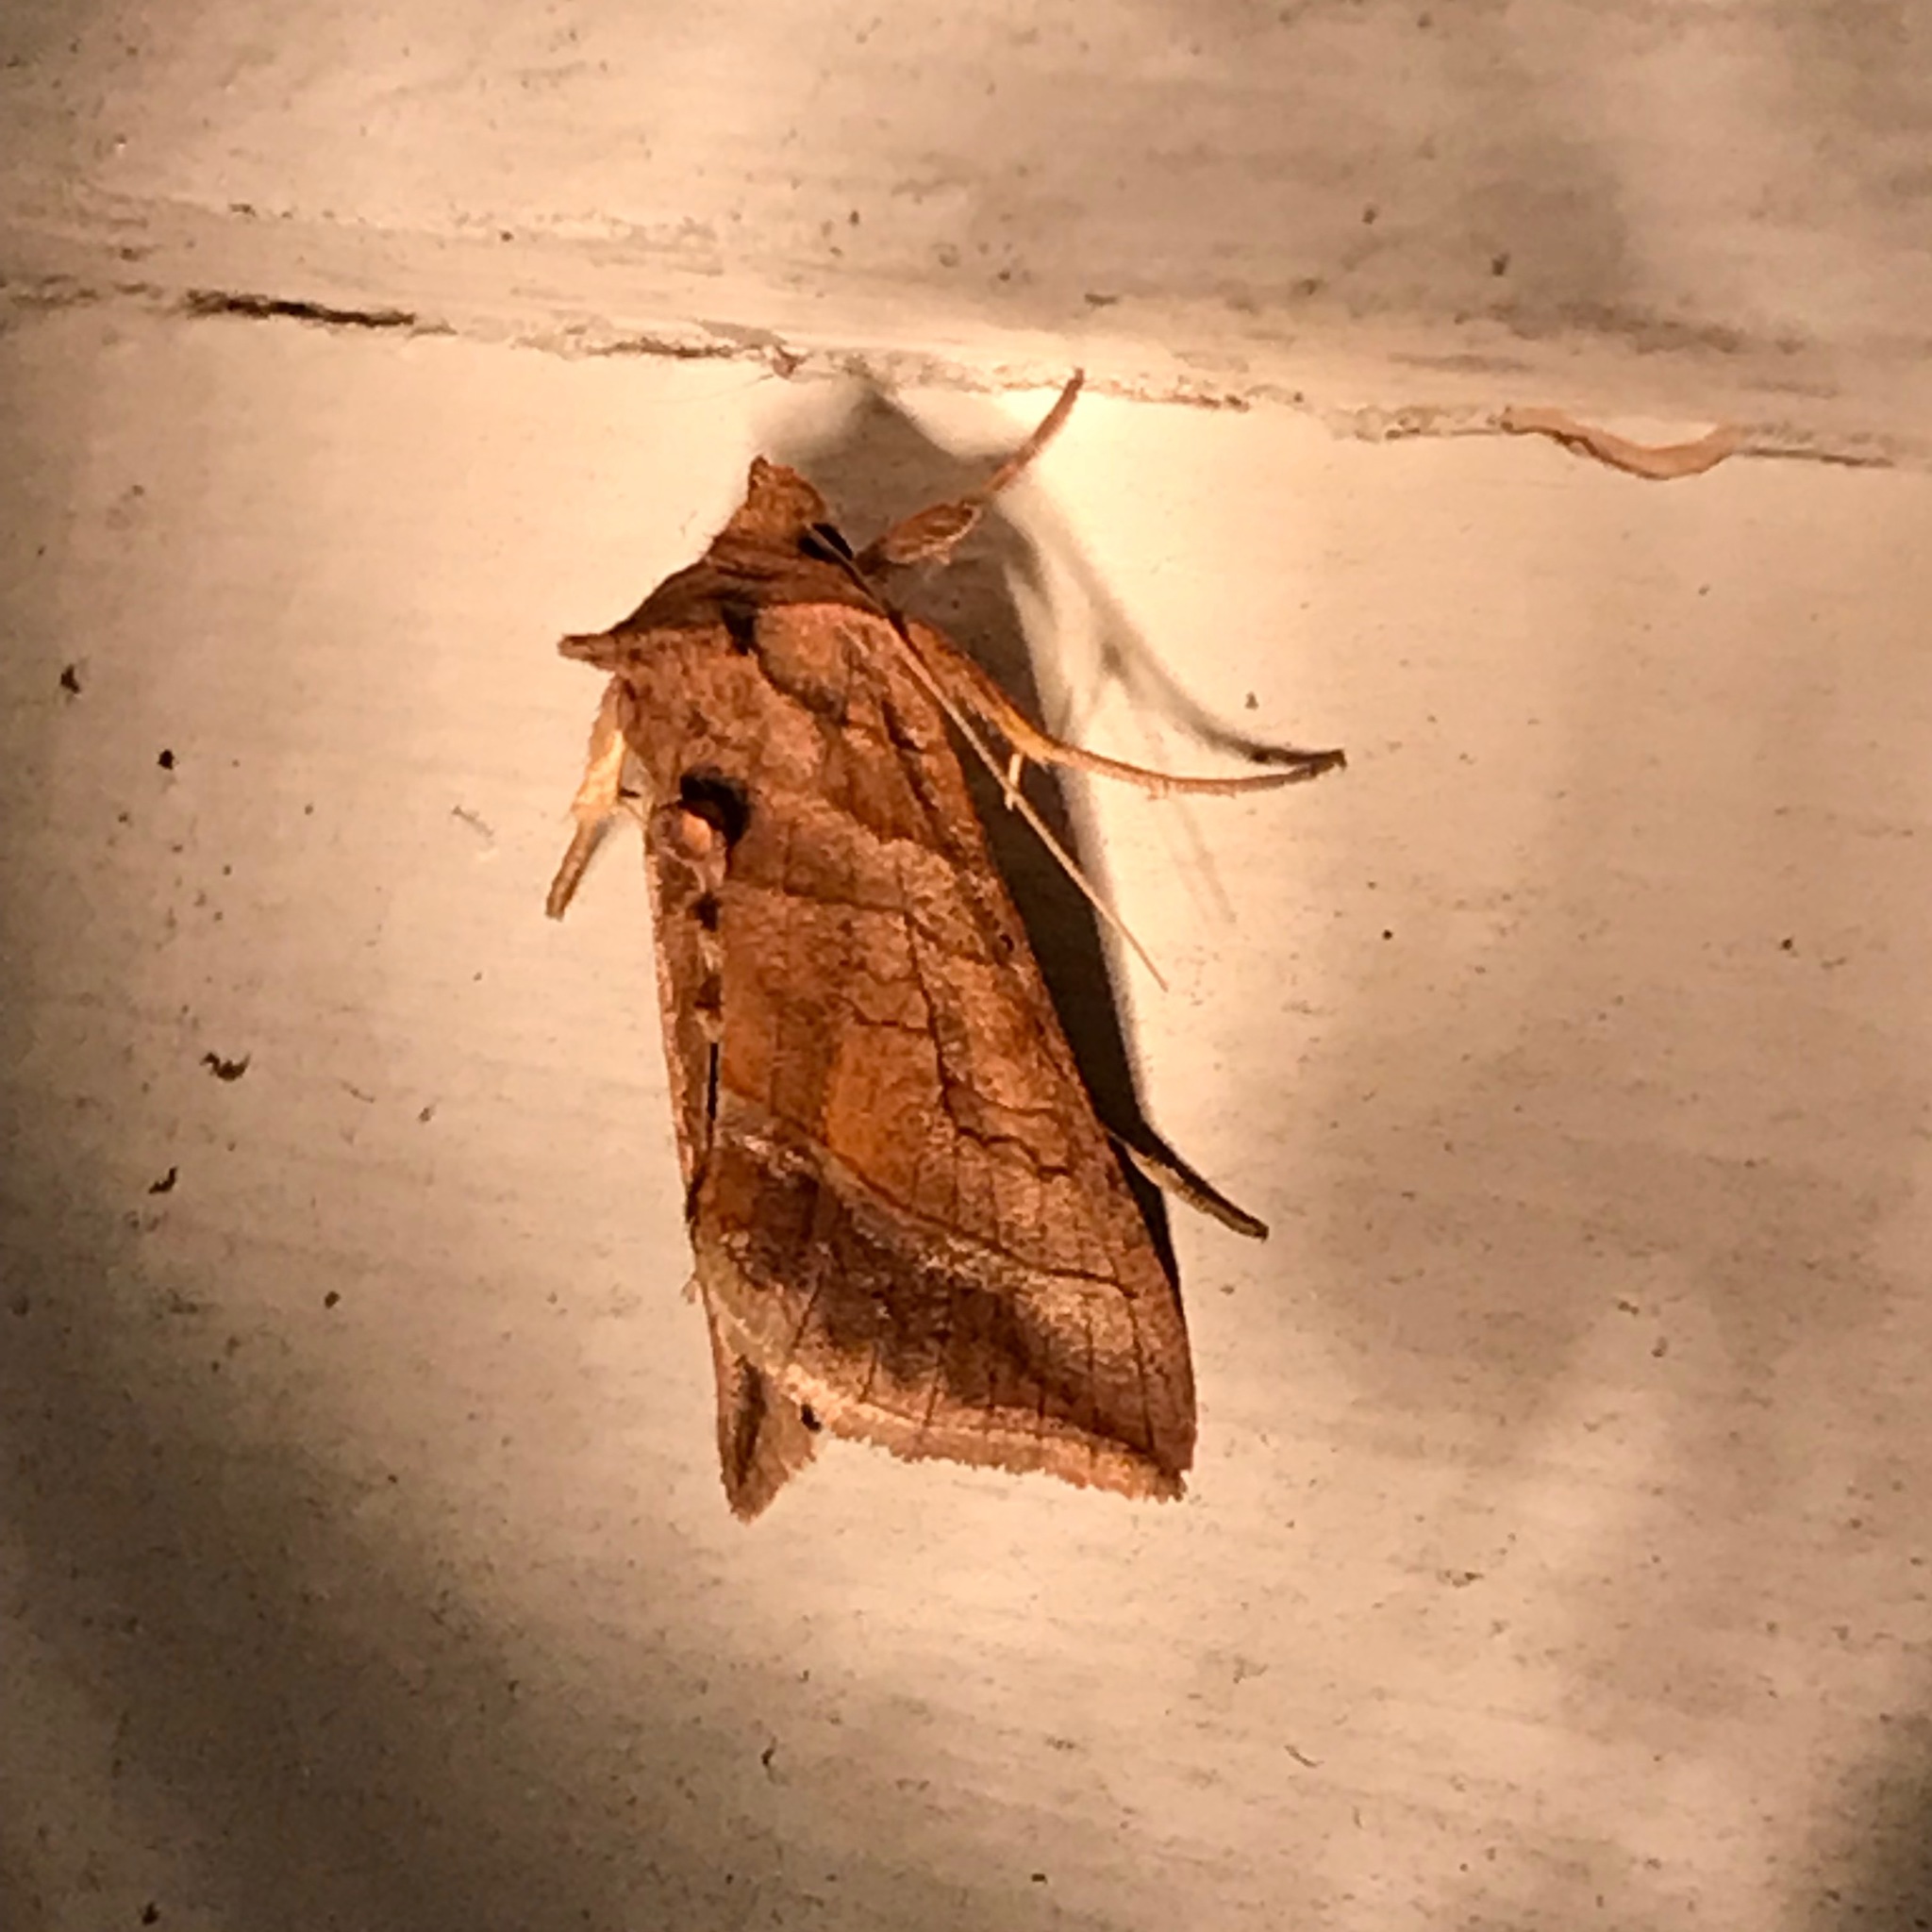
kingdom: Animalia
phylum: Arthropoda
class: Insecta
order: Lepidoptera
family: Noctuidae
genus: Diachrysia
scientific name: Diachrysia aereoides
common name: Dark-spotted looper moth
